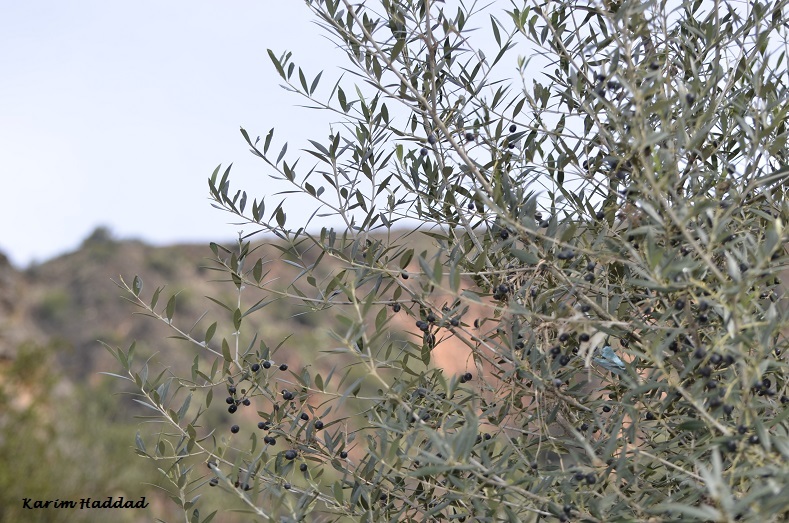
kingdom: Plantae
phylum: Tracheophyta
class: Magnoliopsida
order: Lamiales
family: Oleaceae
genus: Olea
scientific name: Olea europaea
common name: Olive
